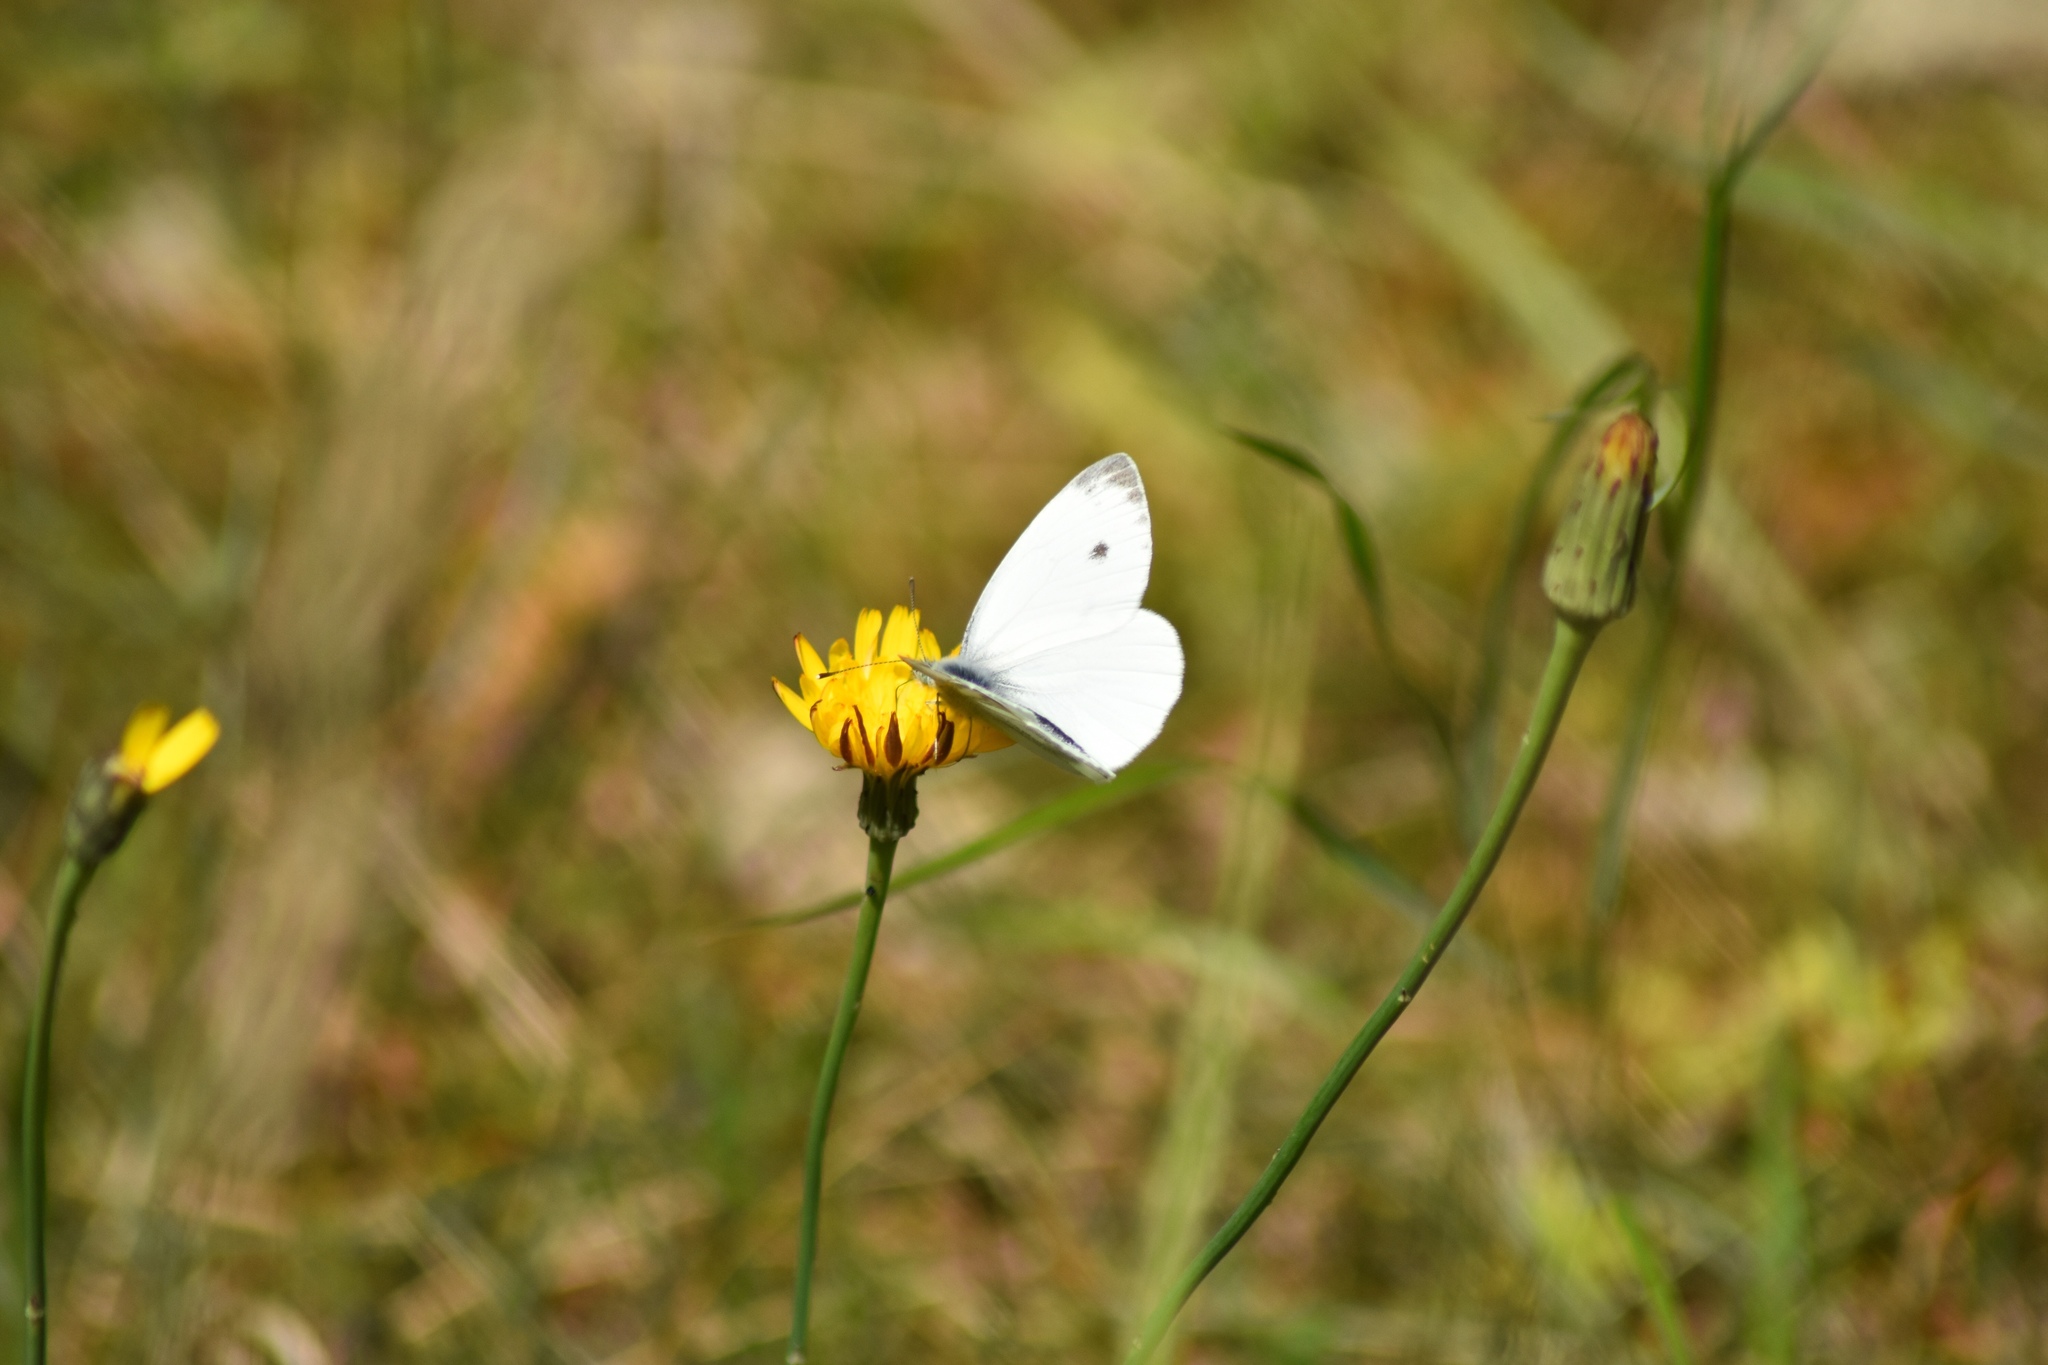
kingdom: Animalia
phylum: Arthropoda
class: Insecta
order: Lepidoptera
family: Pieridae
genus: Pieris
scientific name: Pieris napi
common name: Green-veined white
